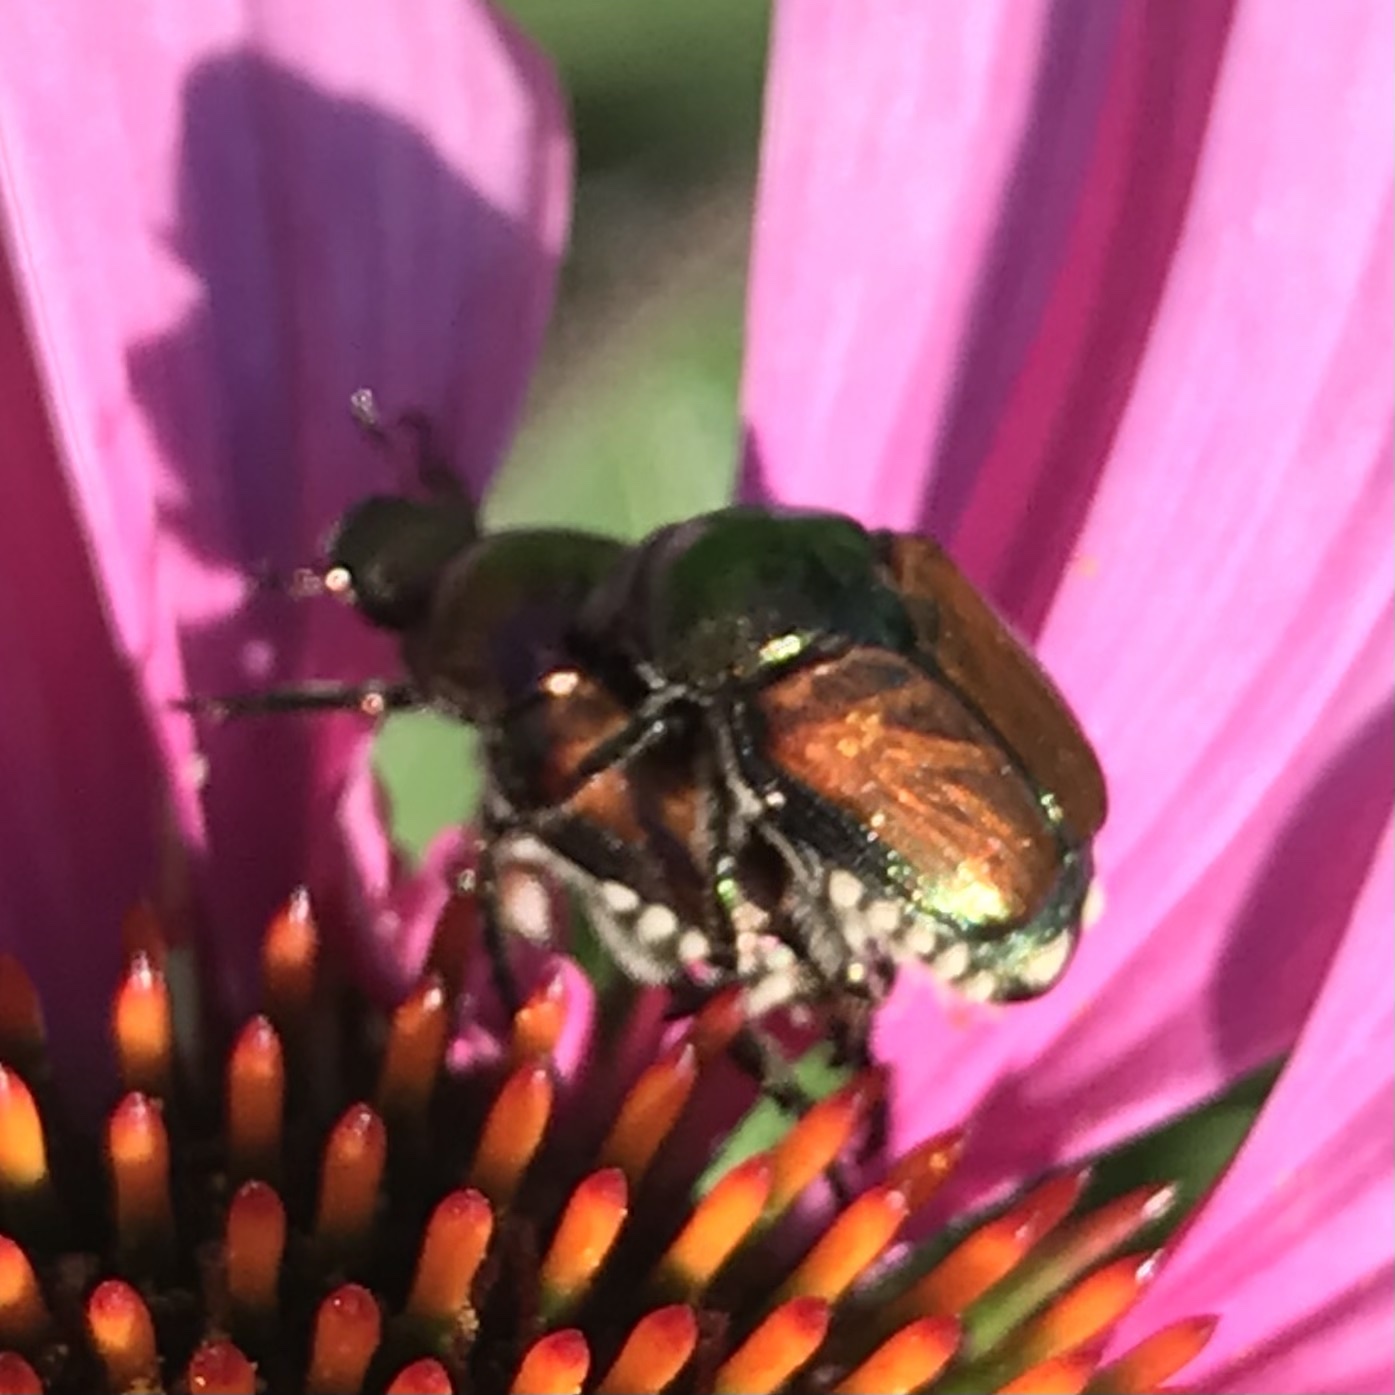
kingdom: Animalia
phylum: Arthropoda
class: Insecta
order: Coleoptera
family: Scarabaeidae
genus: Popillia
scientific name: Popillia japonica
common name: Japanese beetle
